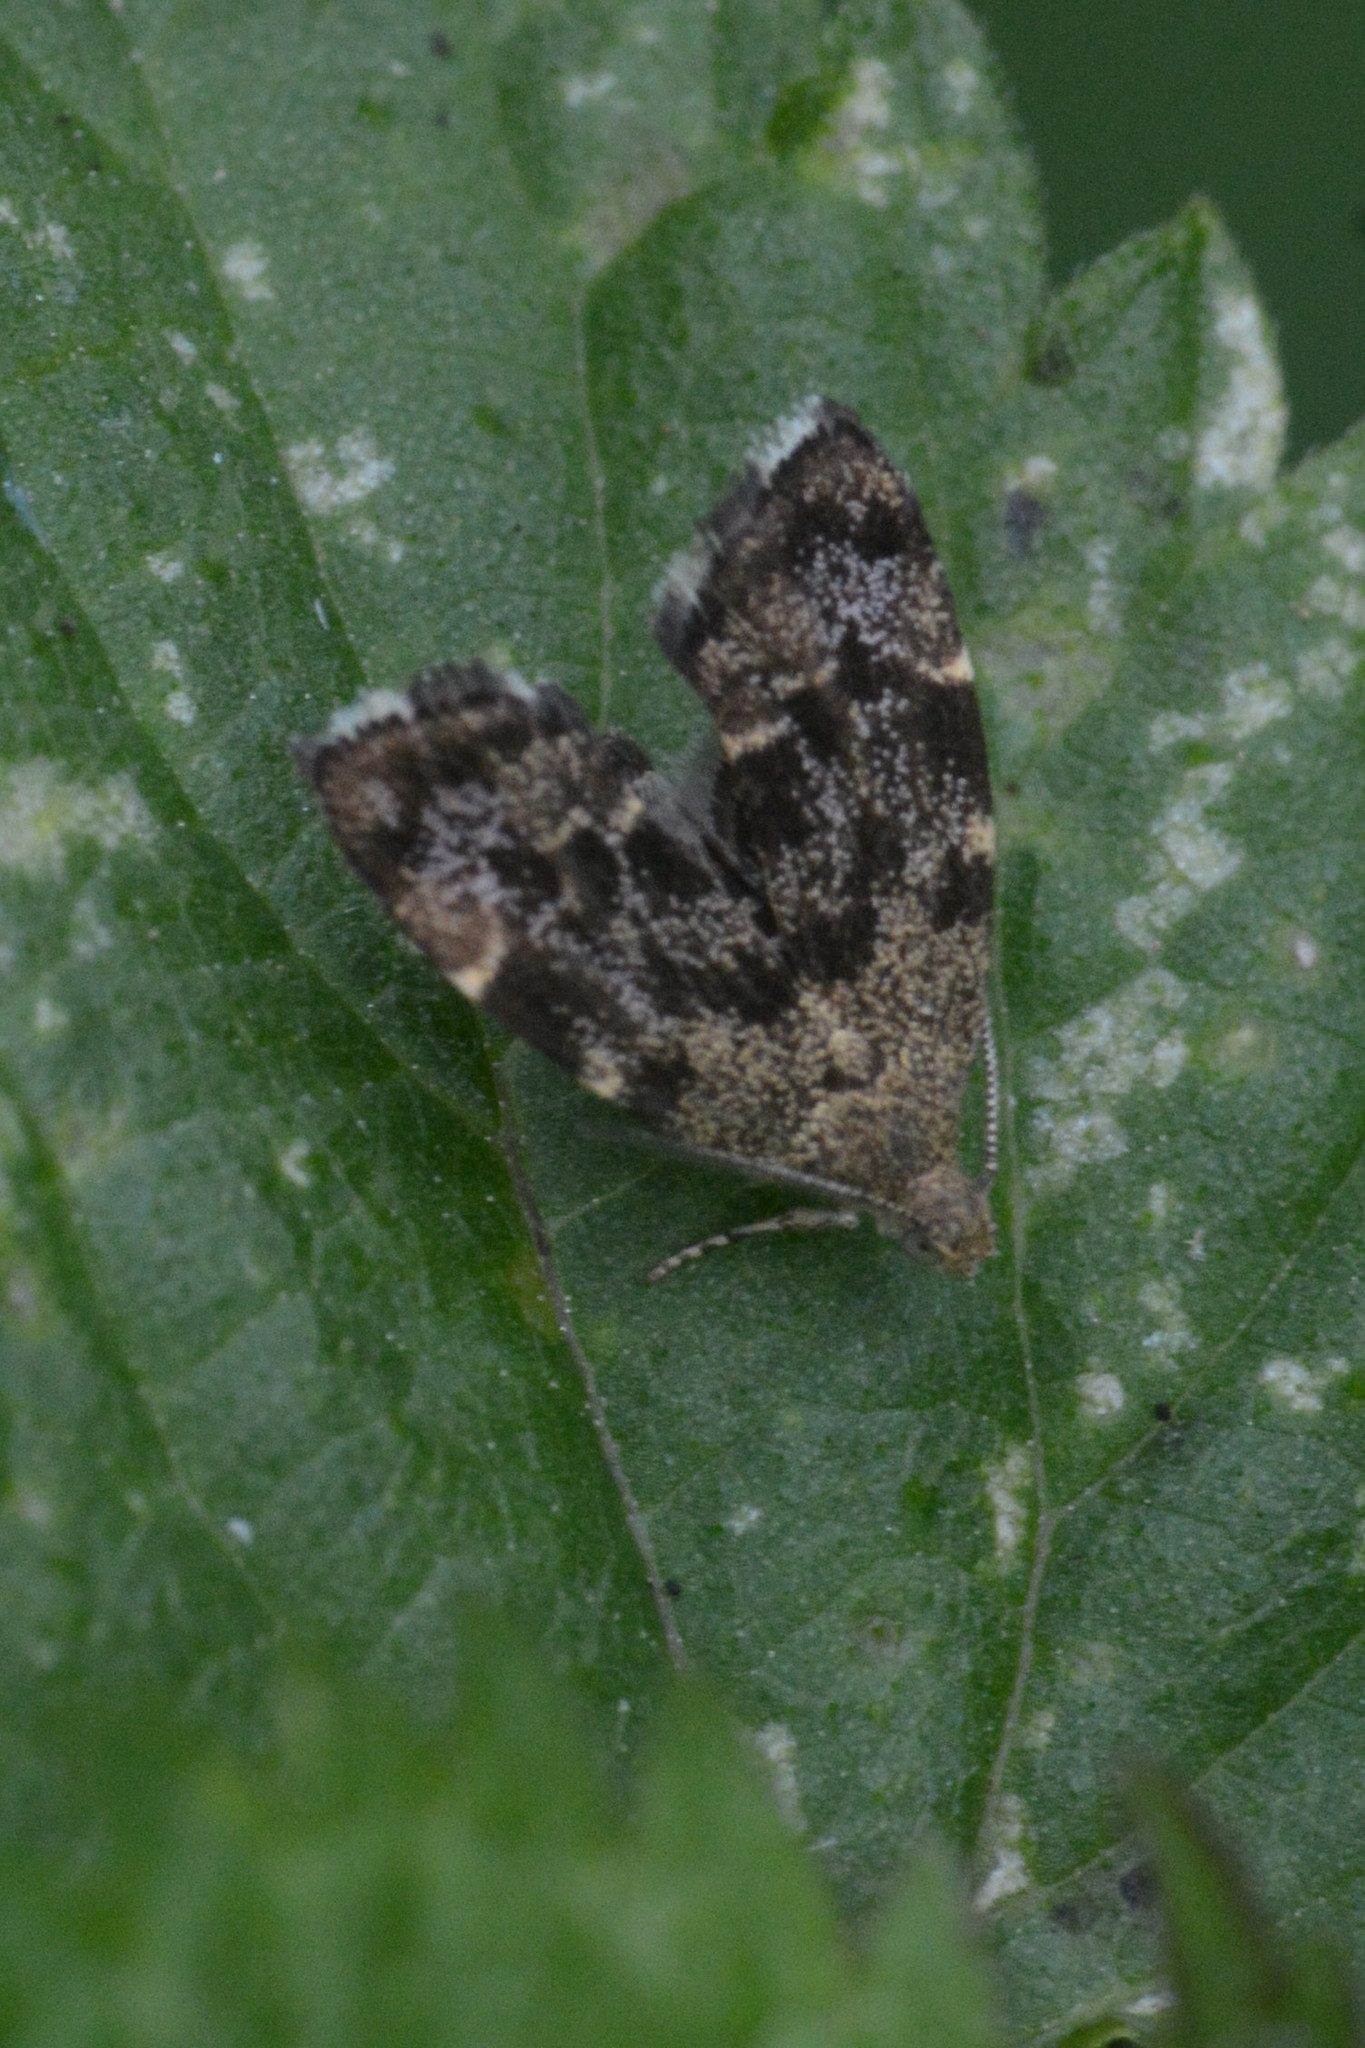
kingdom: Animalia
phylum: Arthropoda
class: Insecta
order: Lepidoptera
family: Choreutidae
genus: Anthophila
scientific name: Anthophila fabriciana
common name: Nettle-tap
